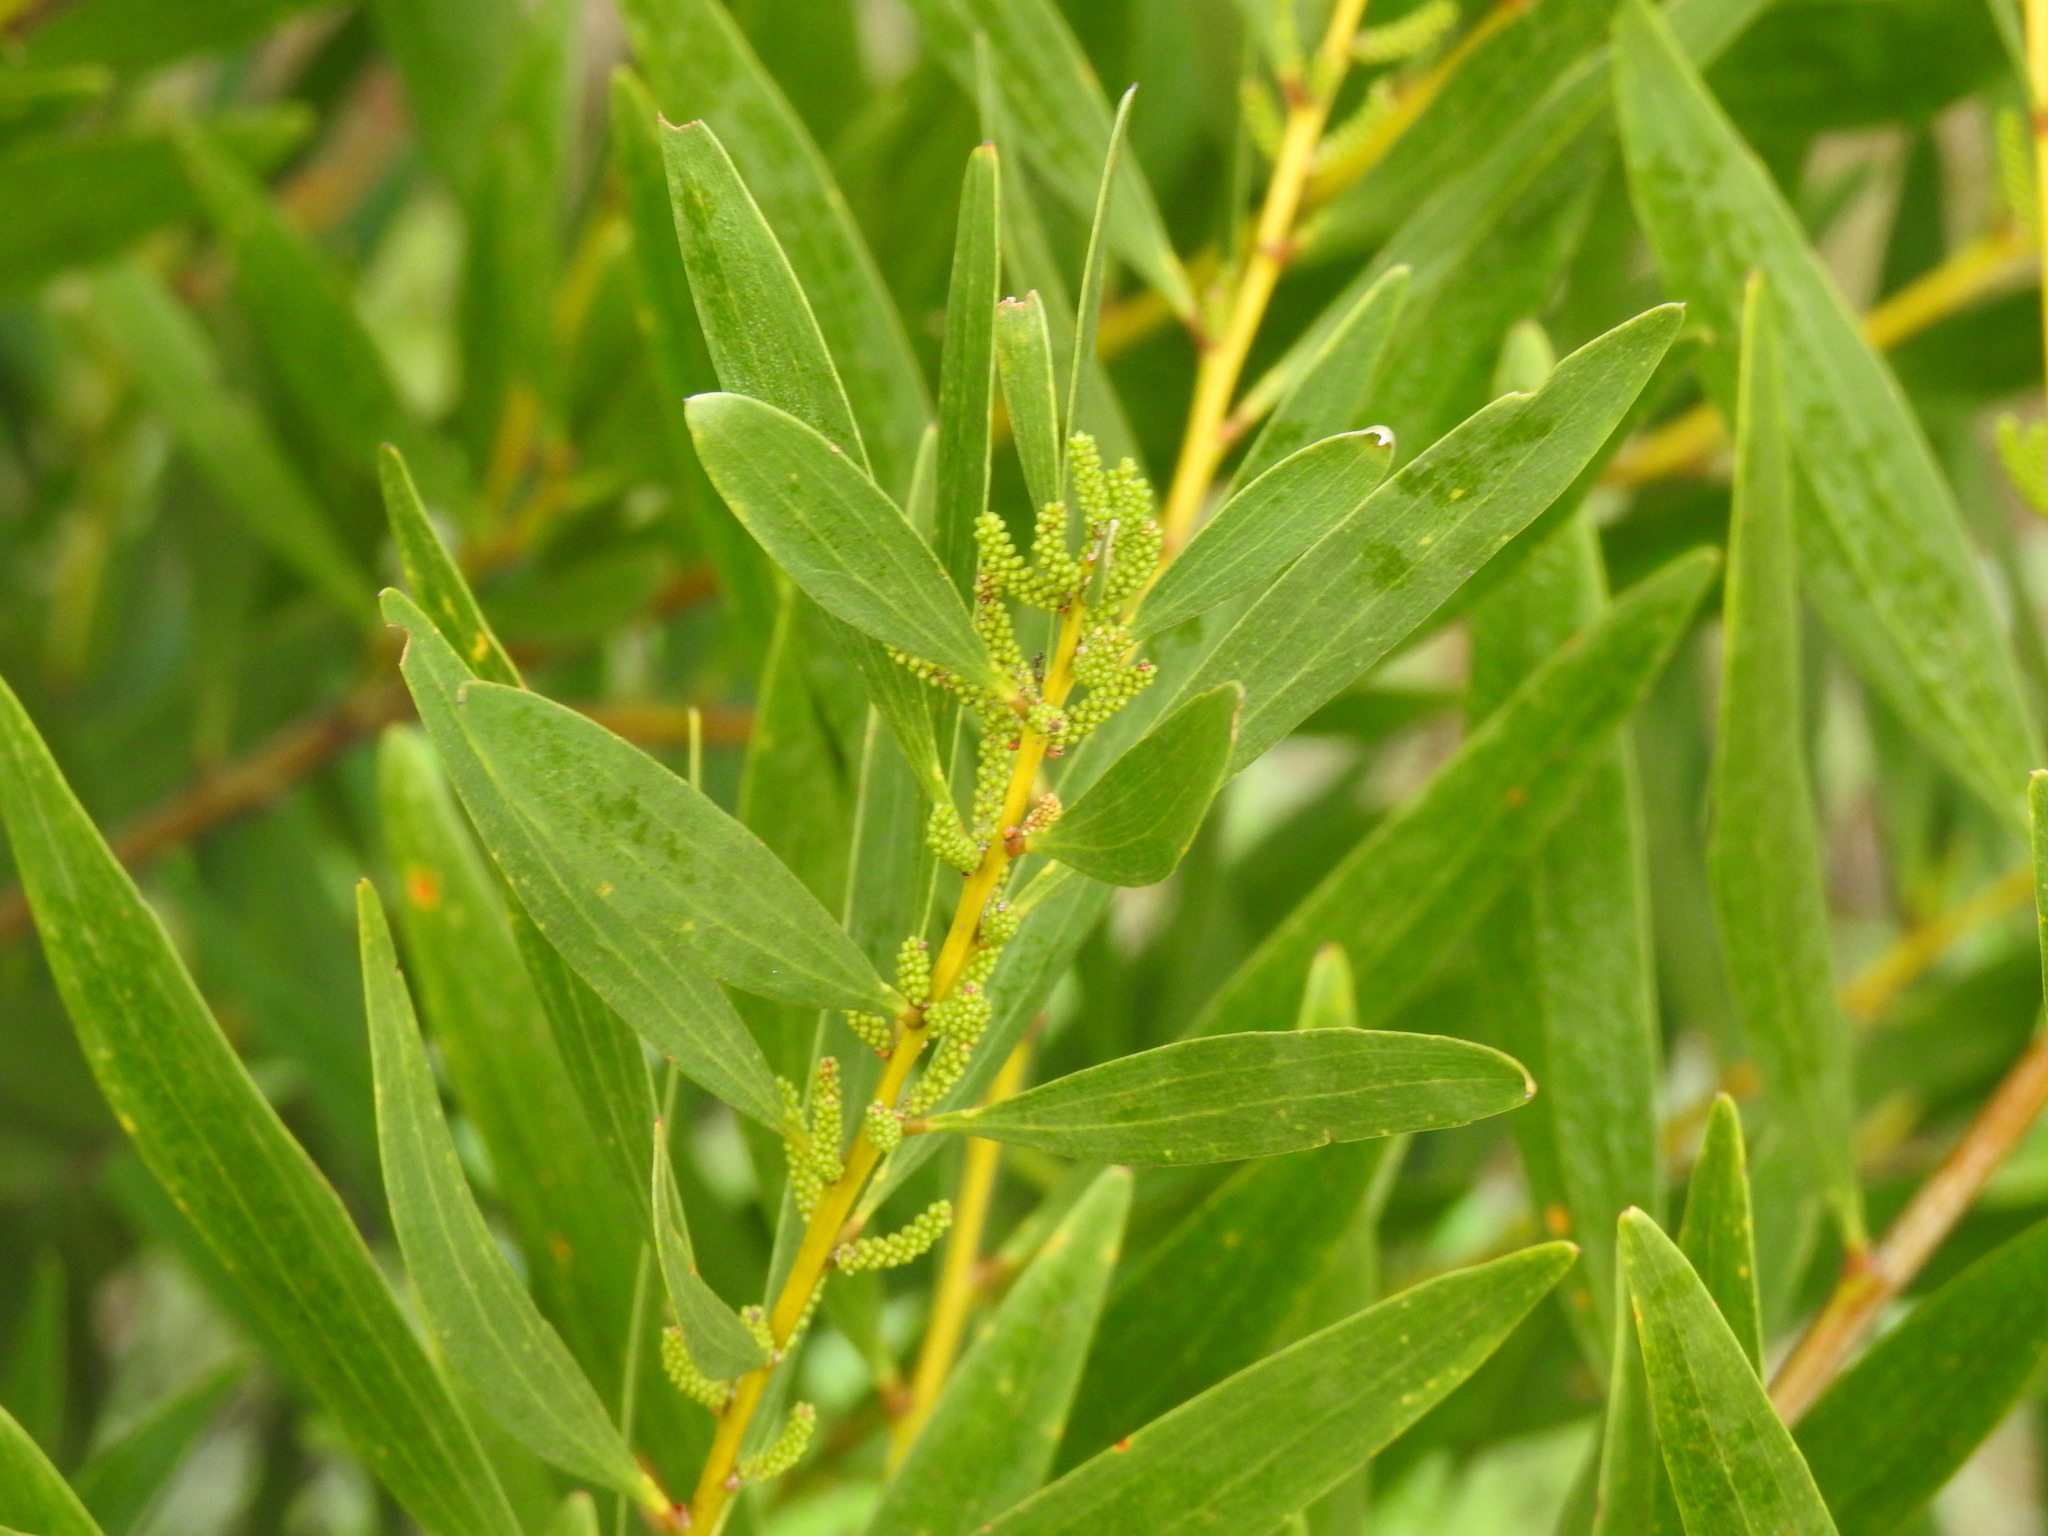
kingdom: Plantae
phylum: Tracheophyta
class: Magnoliopsida
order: Fabales
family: Fabaceae
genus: Acacia
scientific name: Acacia longifolia
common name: Sydney golden wattle
